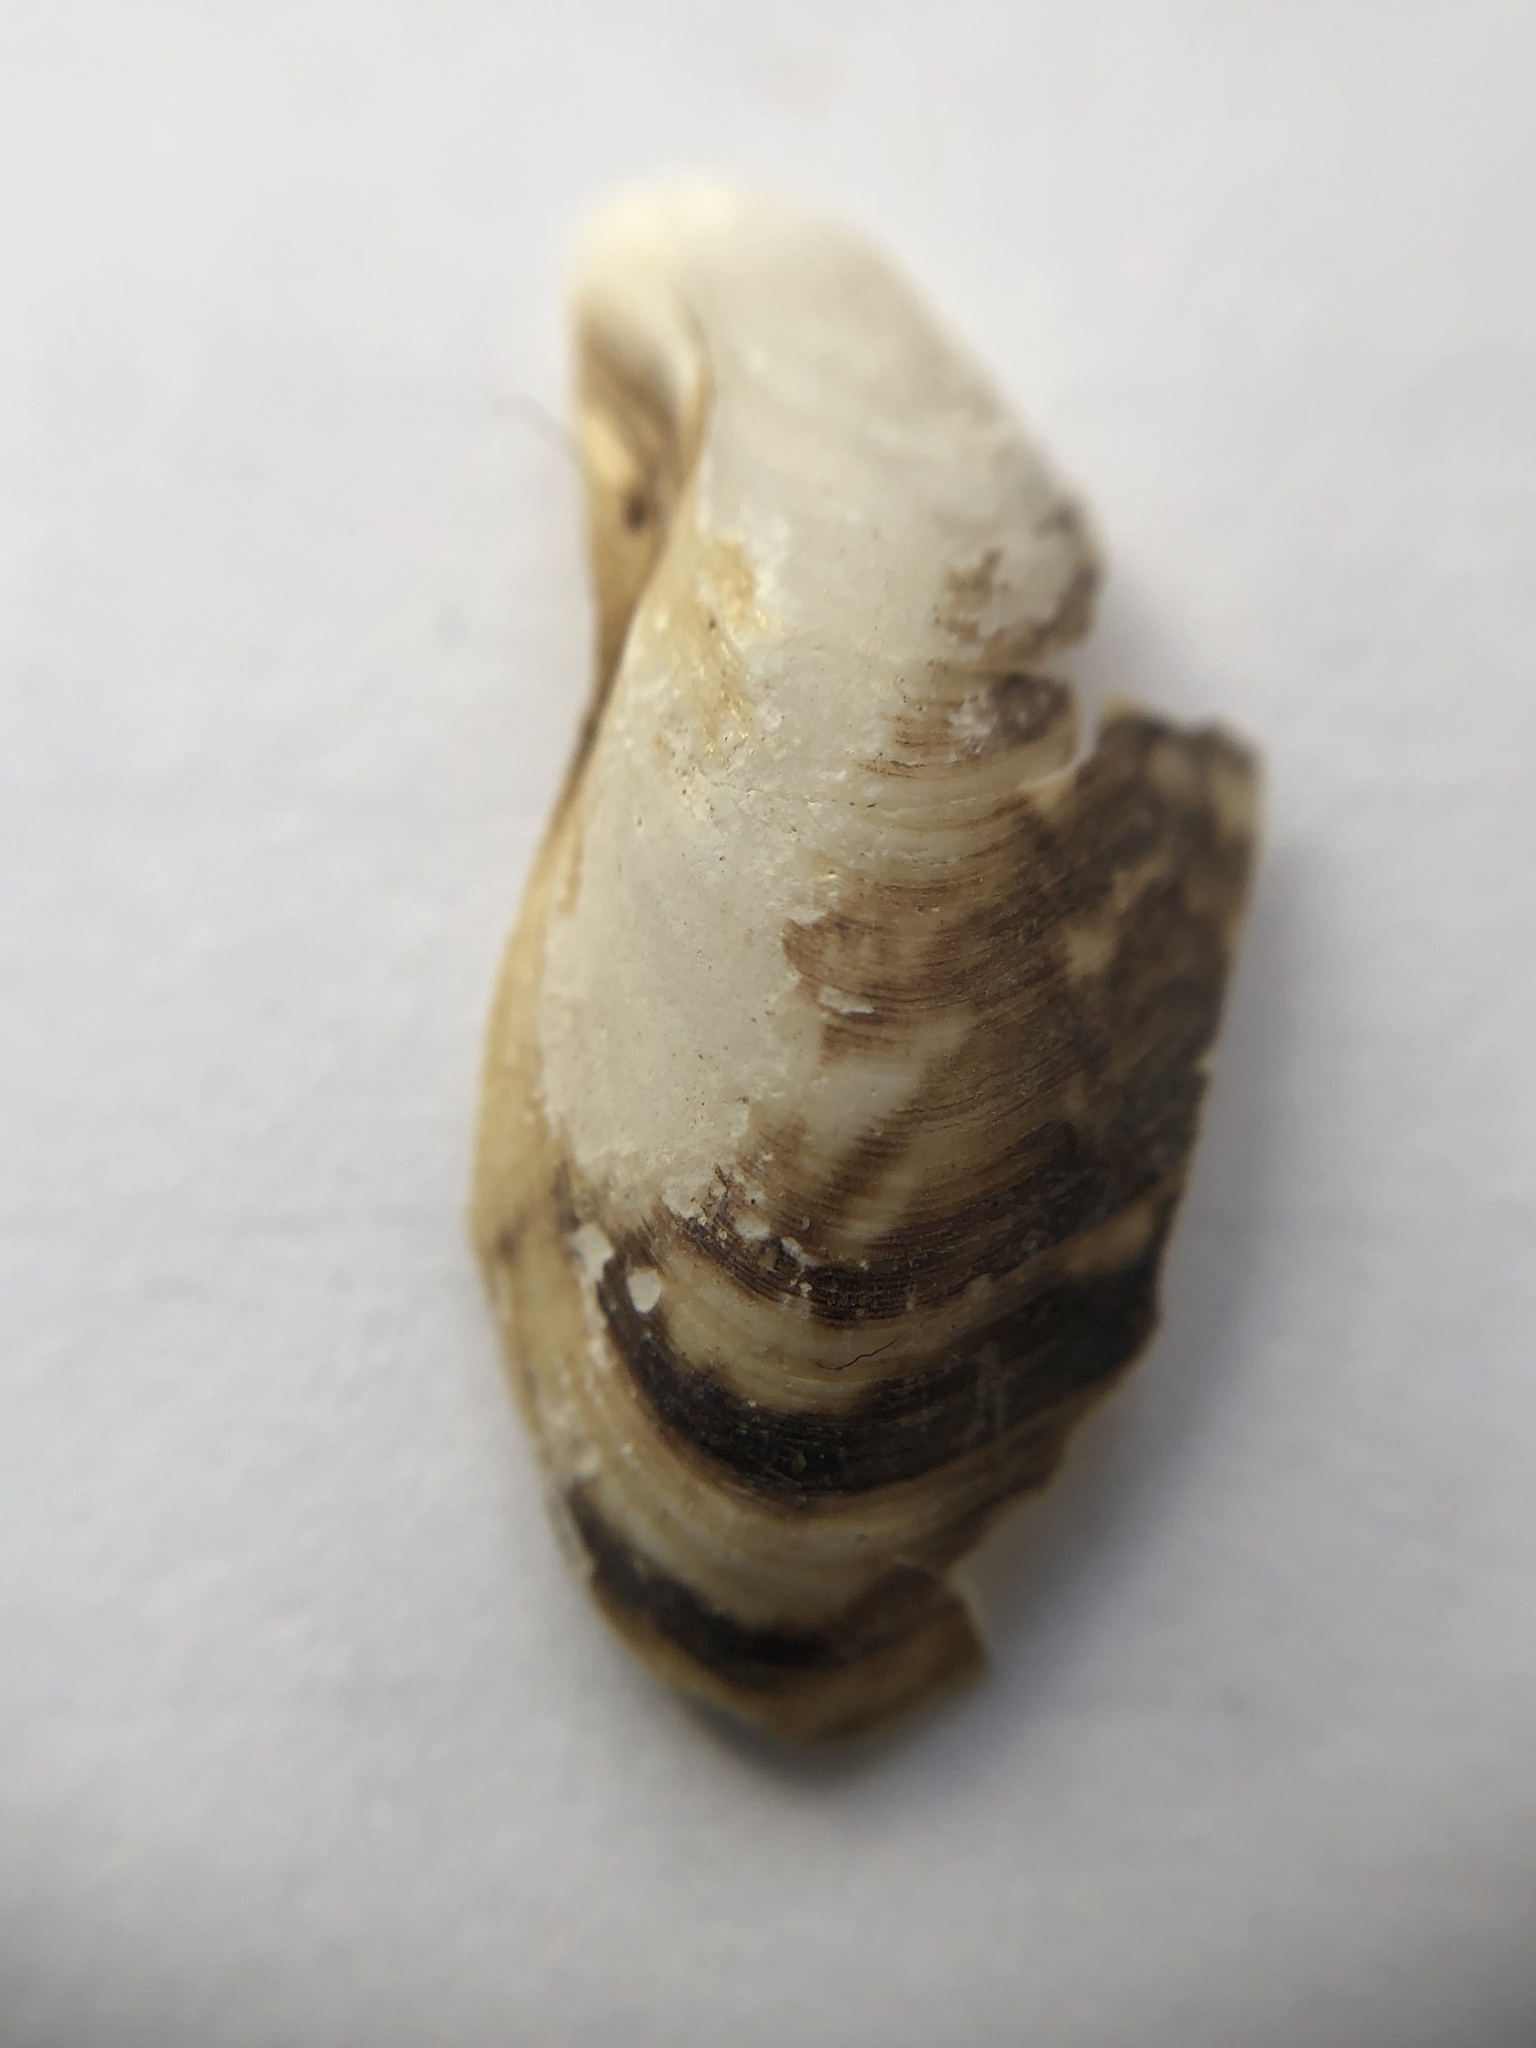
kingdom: Animalia
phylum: Mollusca
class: Bivalvia
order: Myida
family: Dreissenidae
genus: Dreissena
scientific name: Dreissena bugensis
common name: Quagga mussel
